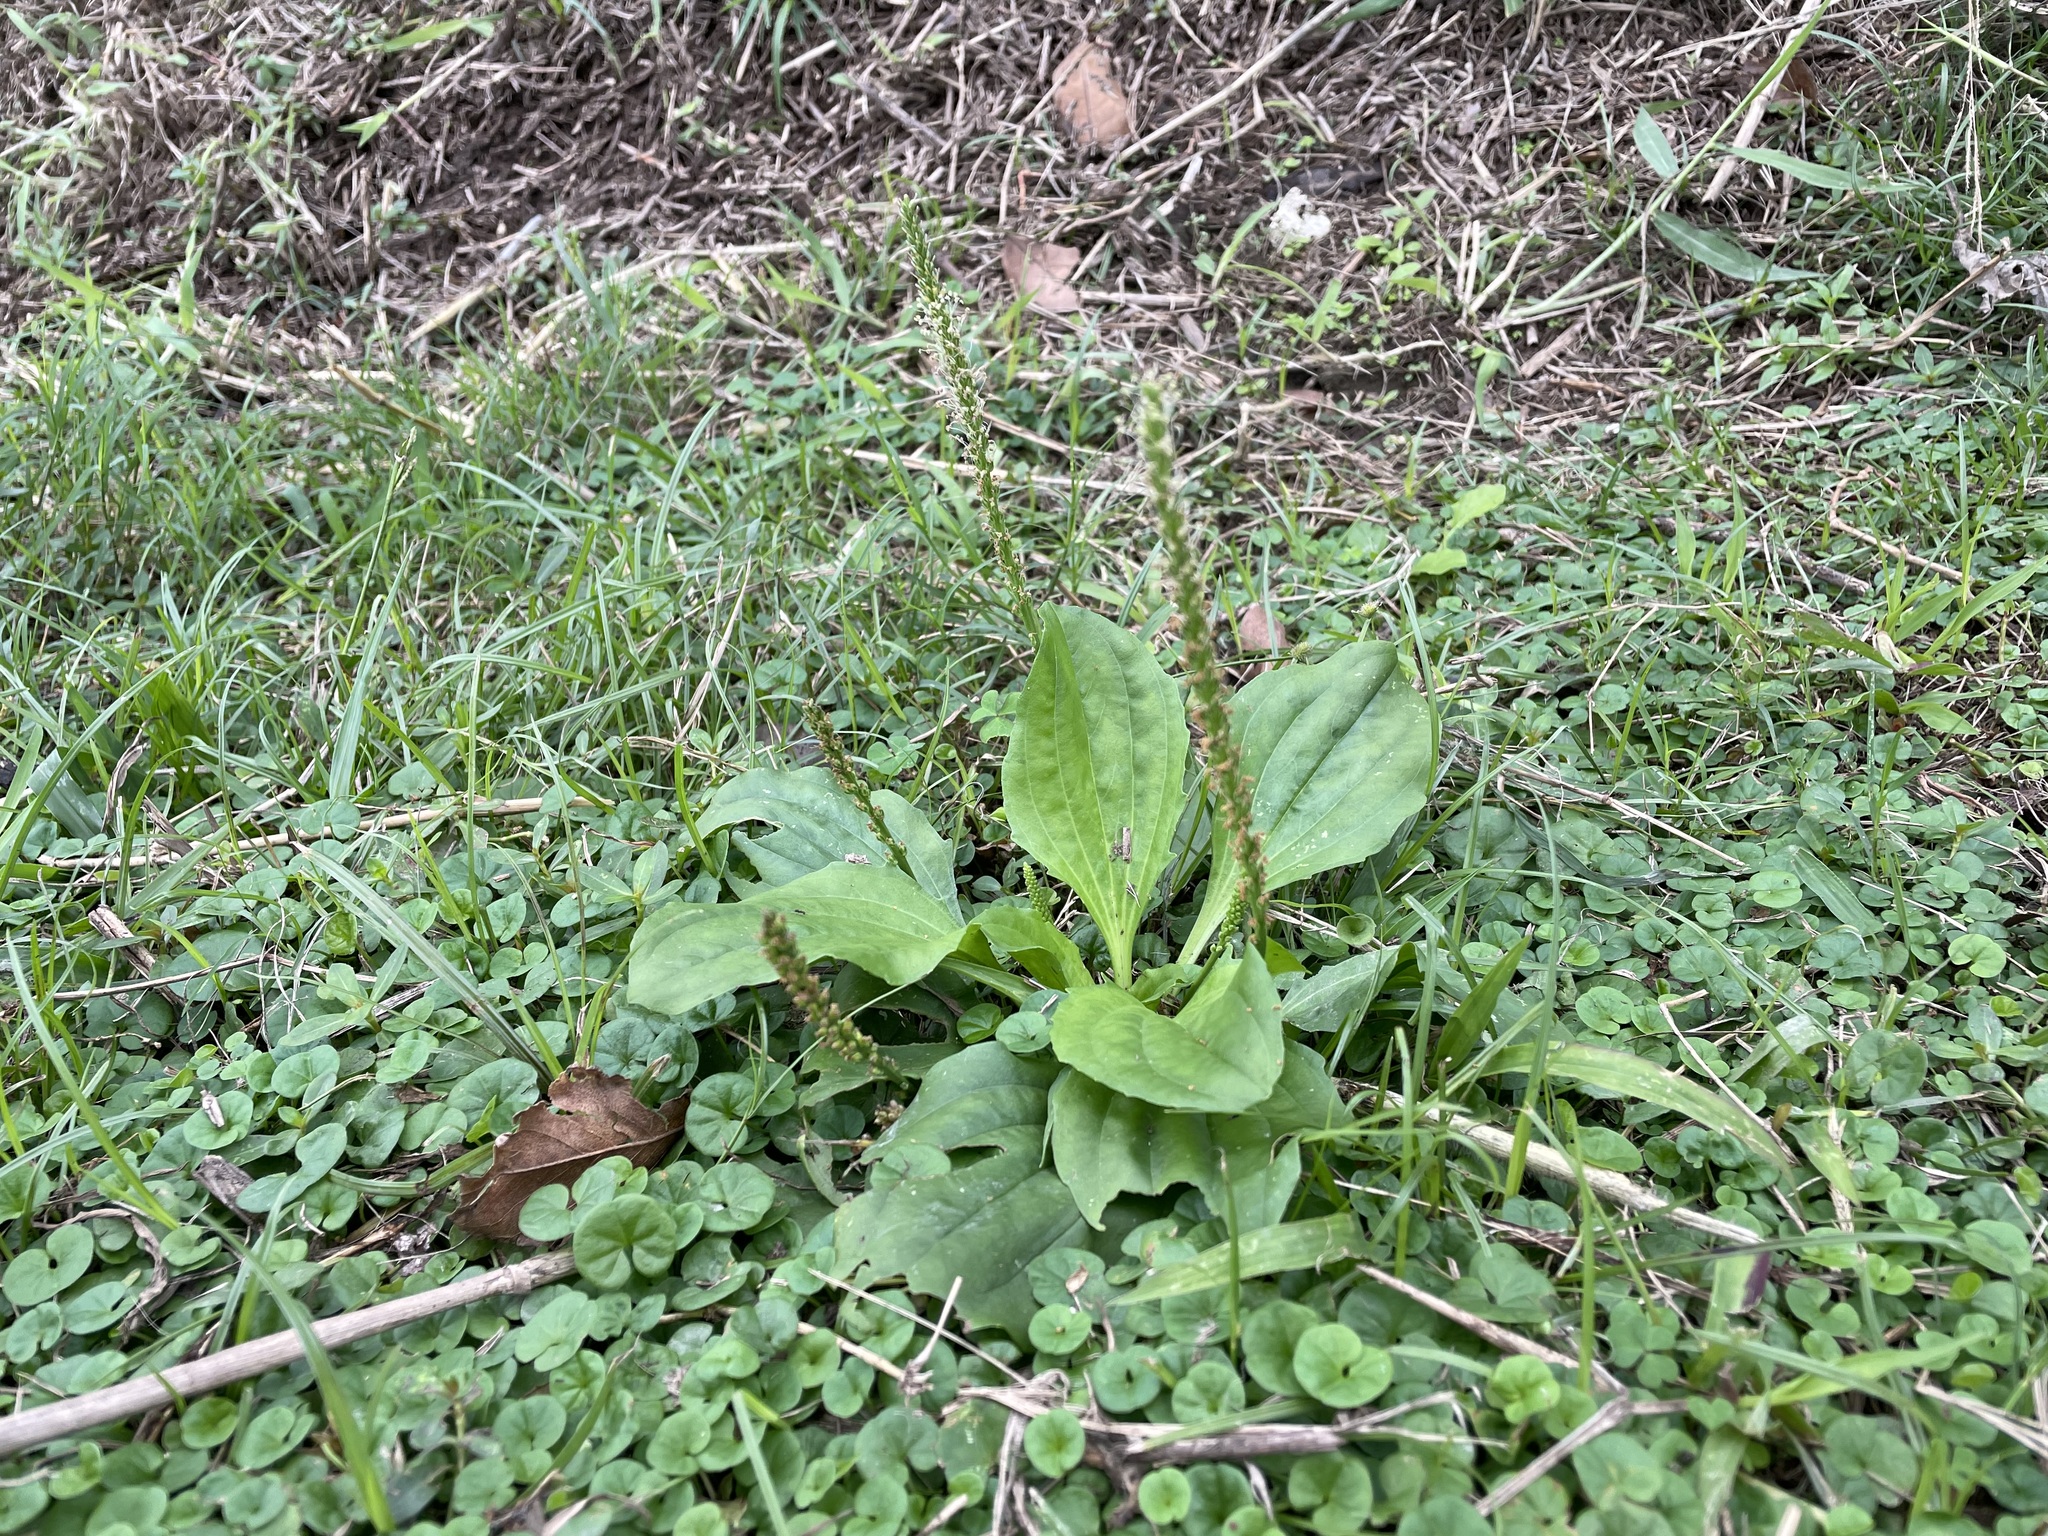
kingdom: Plantae
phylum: Tracheophyta
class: Magnoliopsida
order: Lamiales
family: Plantaginaceae
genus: Plantago
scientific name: Plantago asiatica
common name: Psyllium
